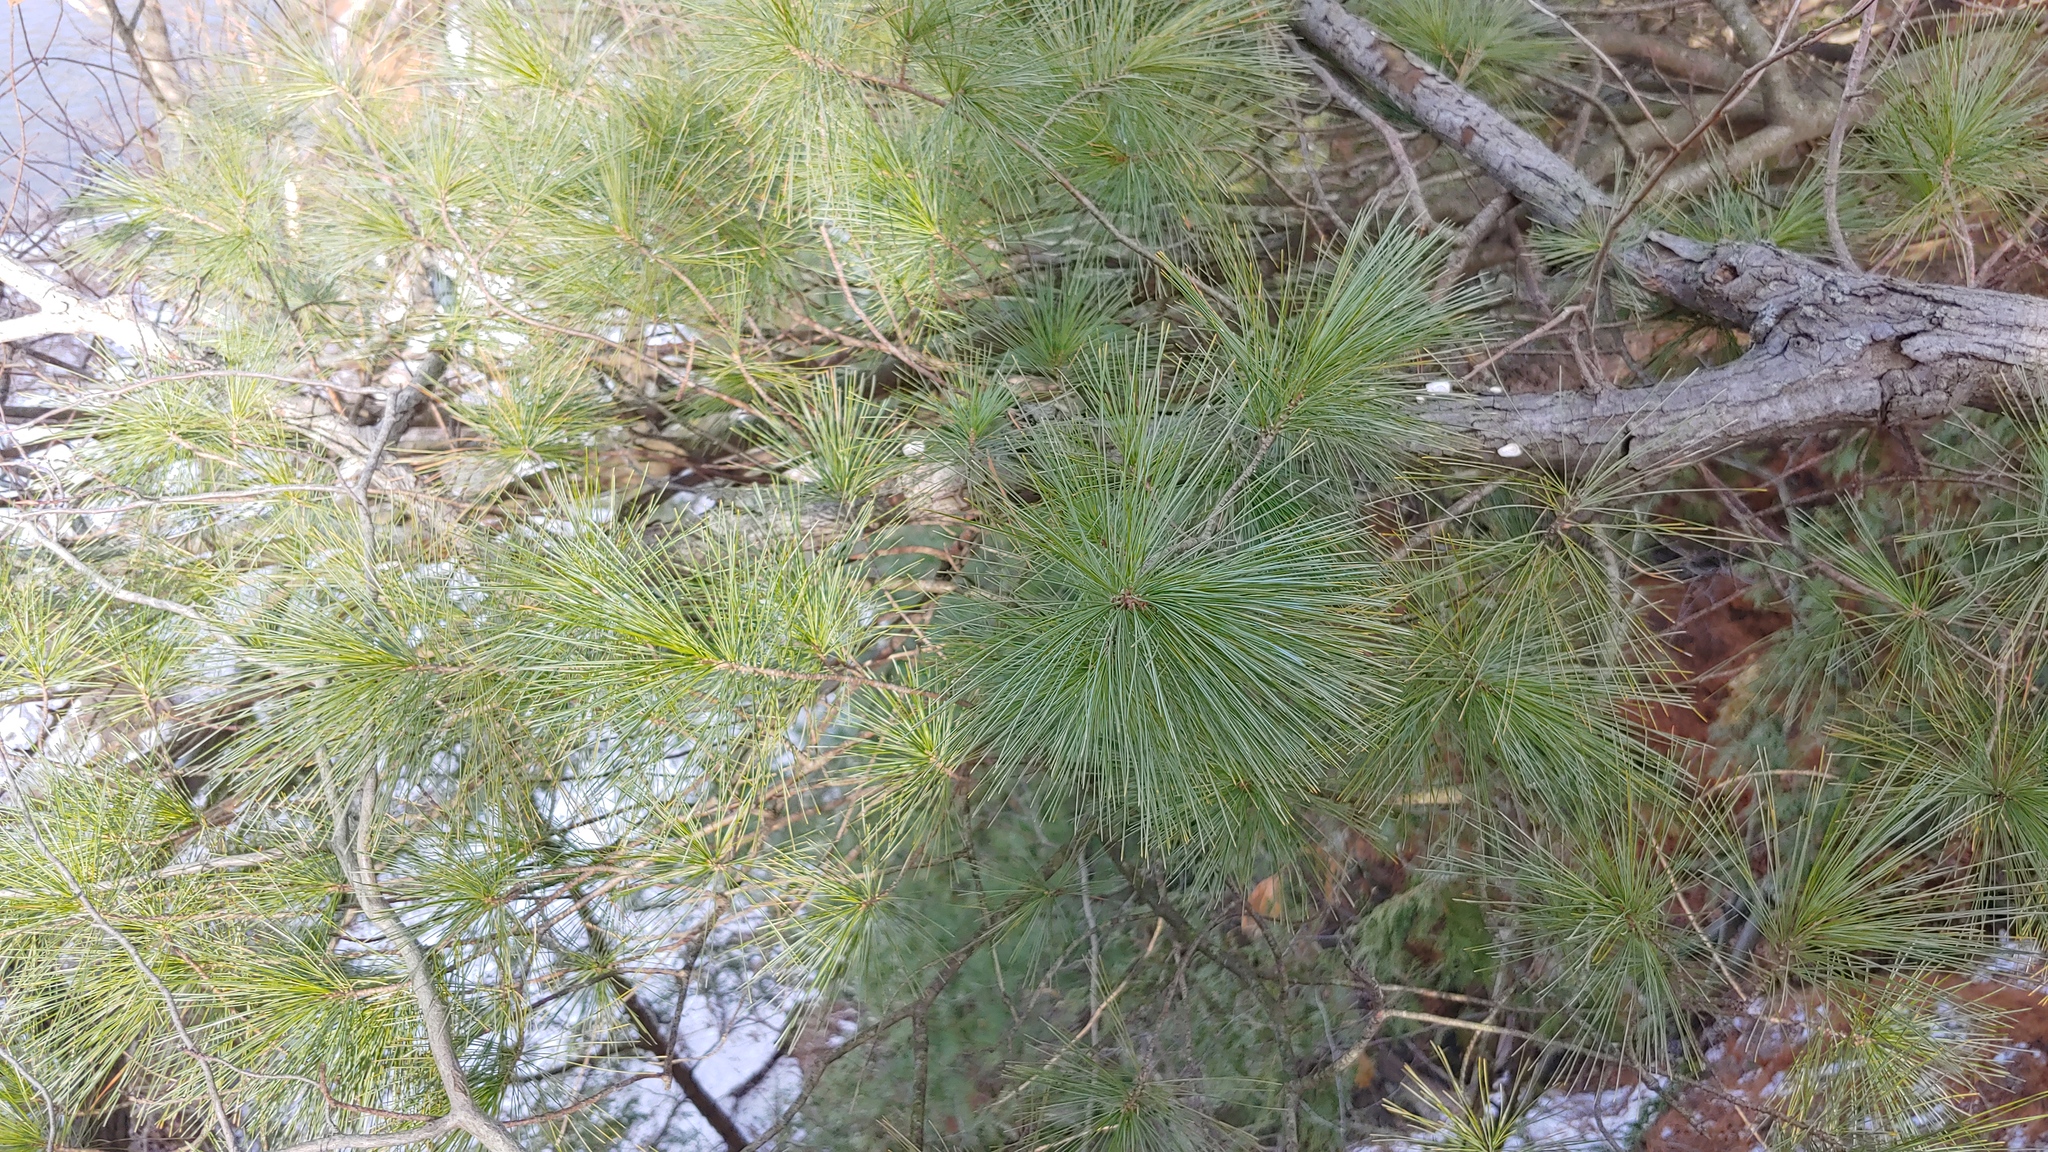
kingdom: Plantae
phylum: Tracheophyta
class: Pinopsida
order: Pinales
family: Pinaceae
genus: Pinus
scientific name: Pinus strobus
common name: Weymouth pine
